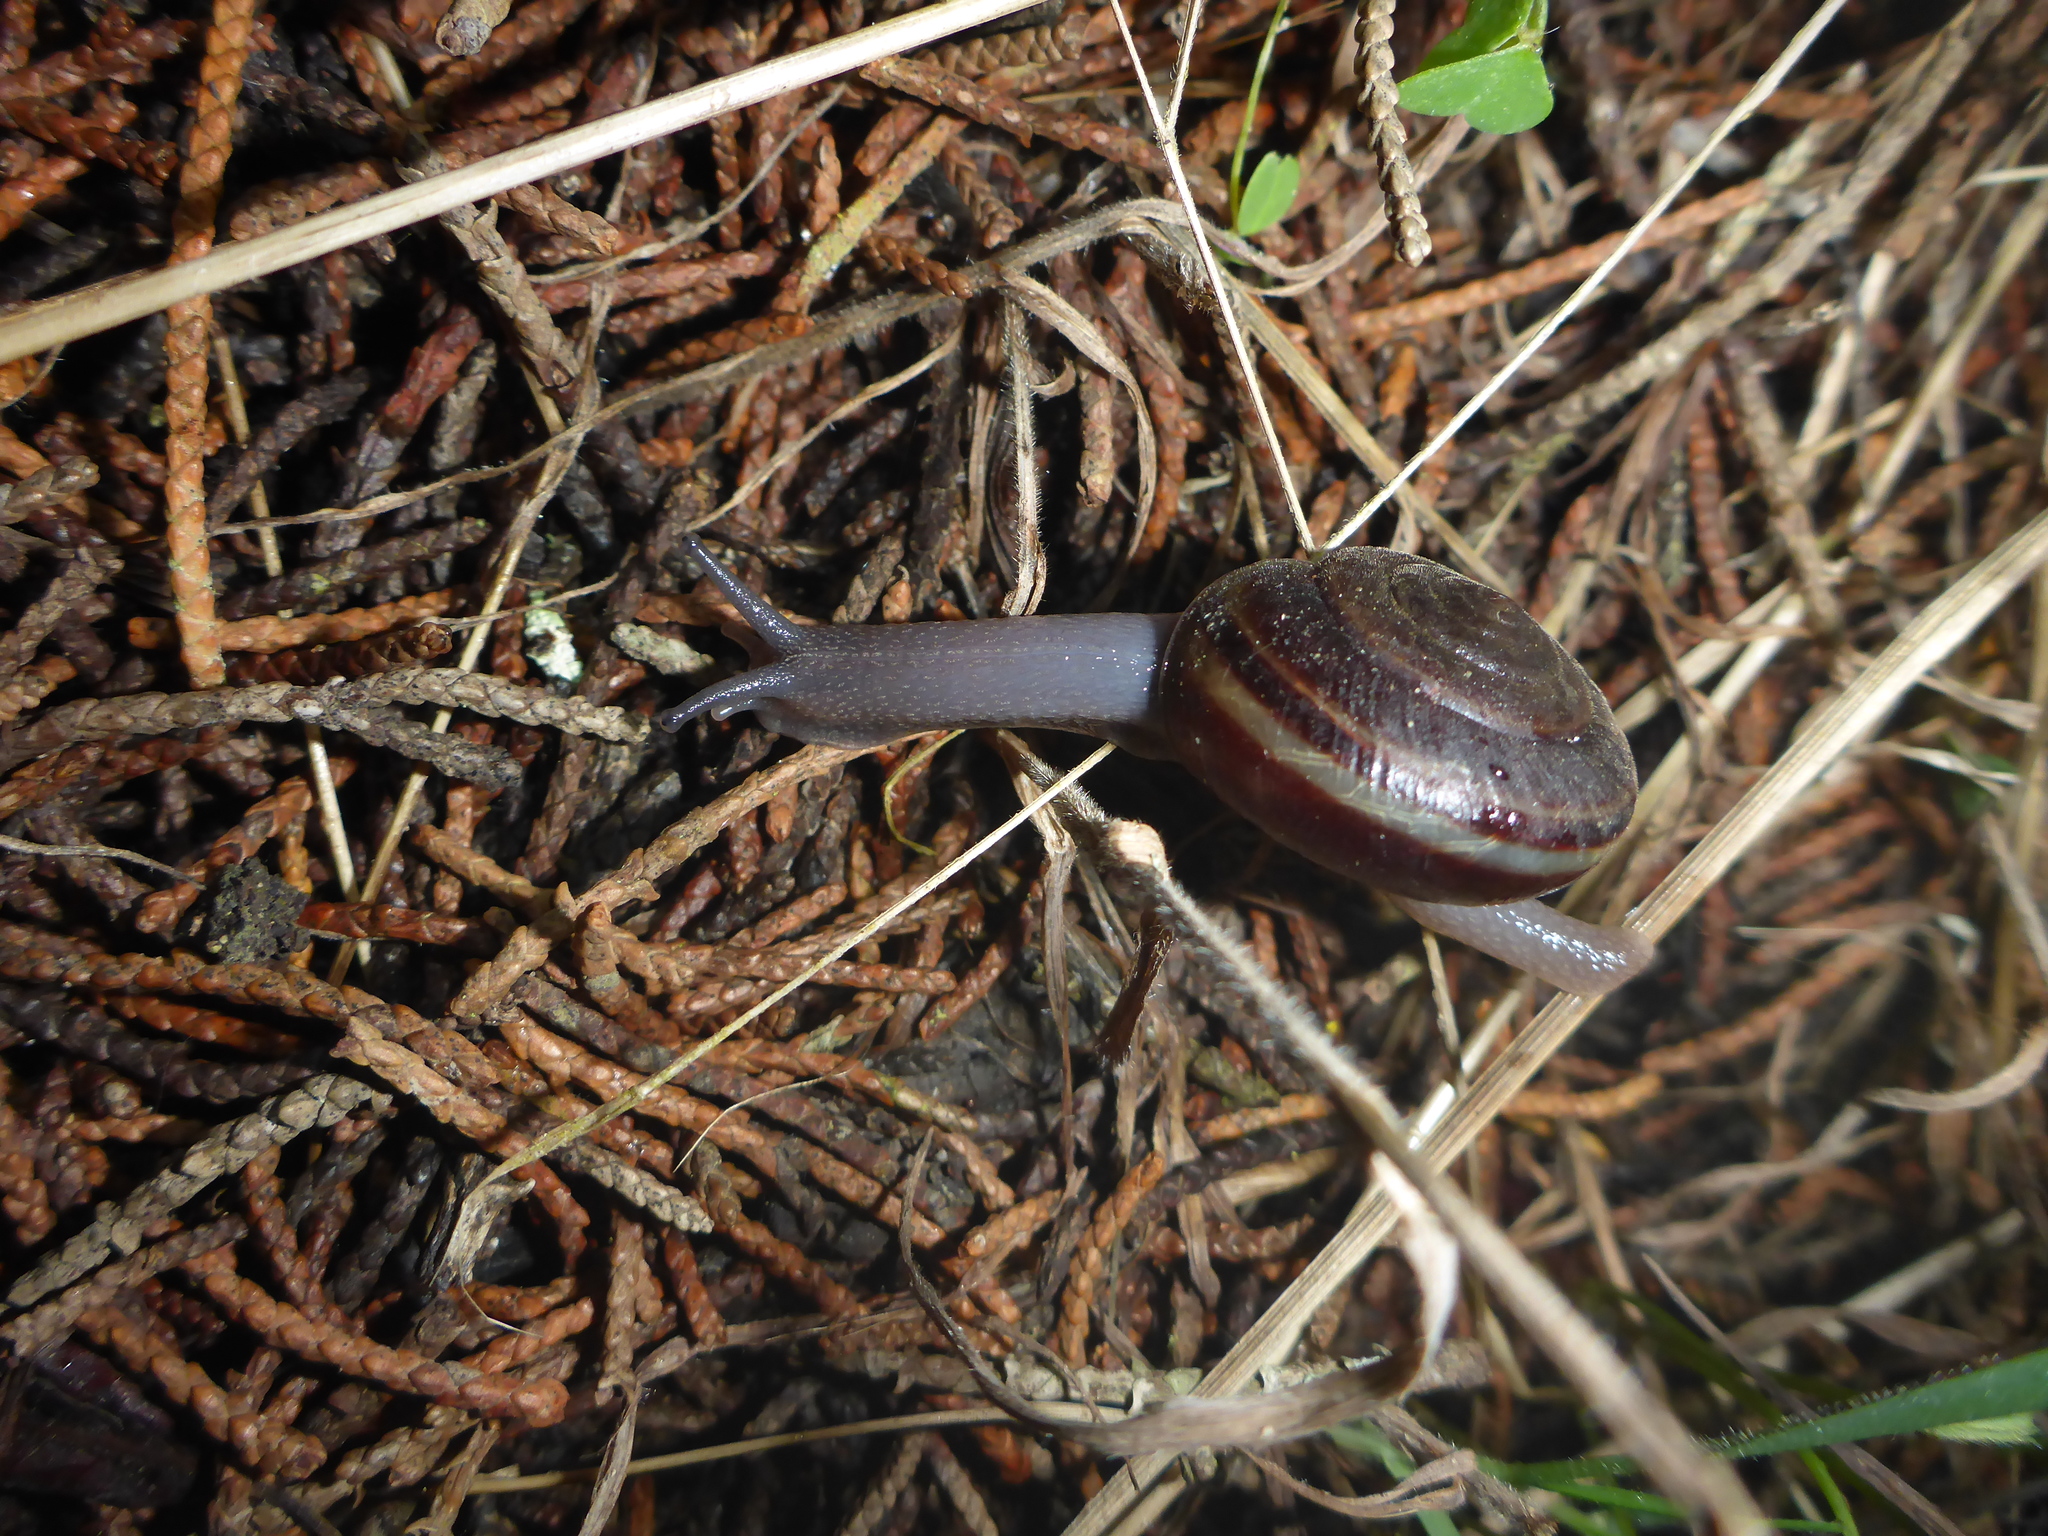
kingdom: Animalia
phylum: Mollusca
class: Gastropoda
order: Stylommatophora
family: Xanthonychidae
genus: Helminthoglypta
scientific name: Helminthoglypta sequoicola
